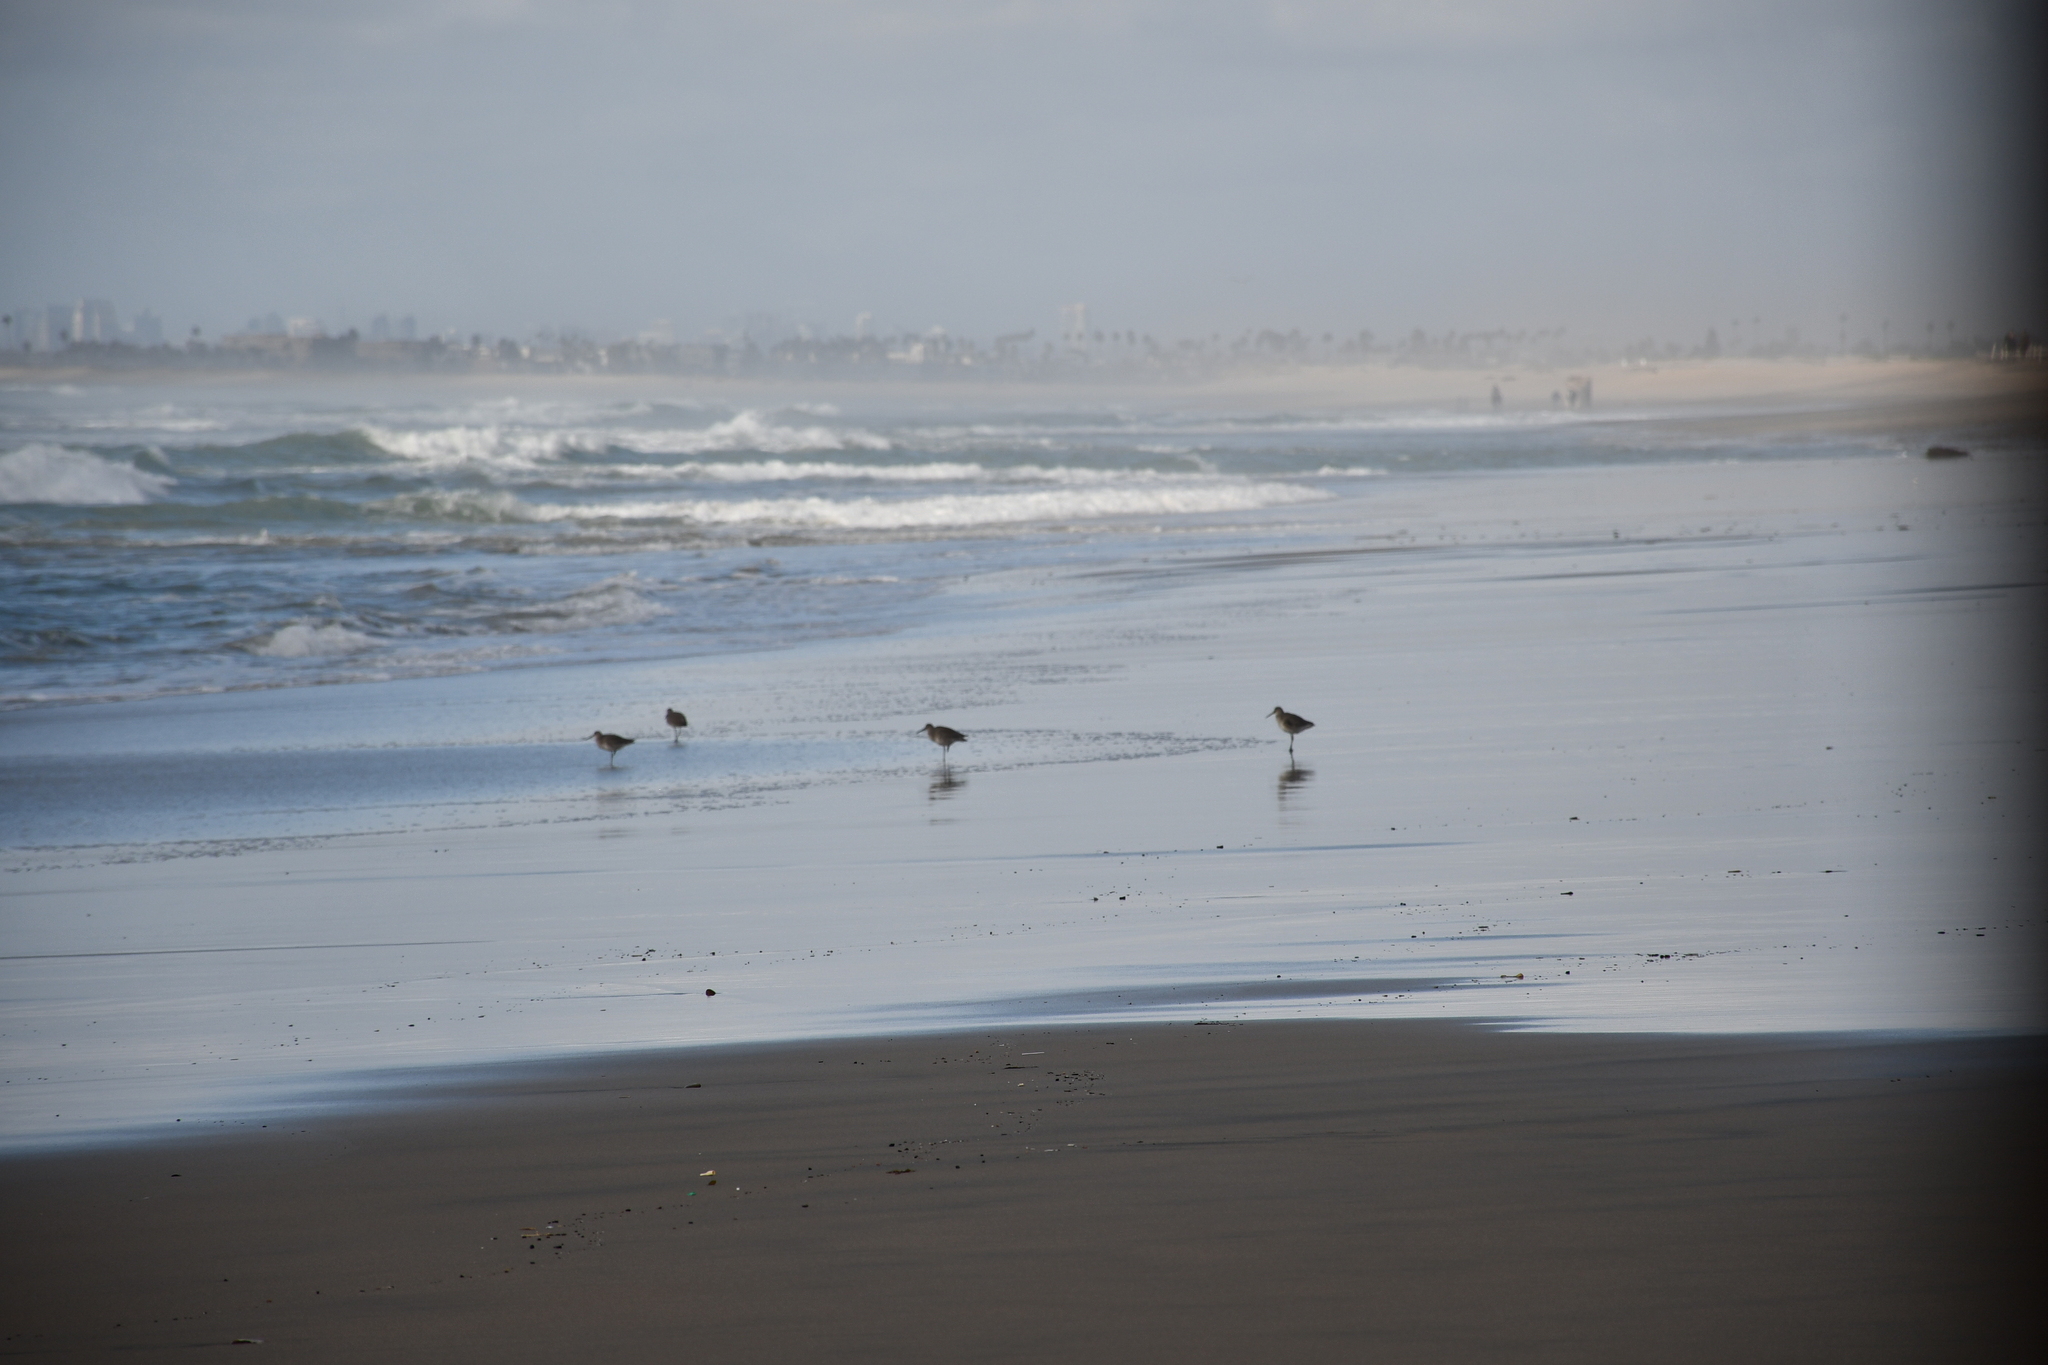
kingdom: Animalia
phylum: Chordata
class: Aves
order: Charadriiformes
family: Scolopacidae
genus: Tringa
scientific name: Tringa semipalmata
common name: Willet
